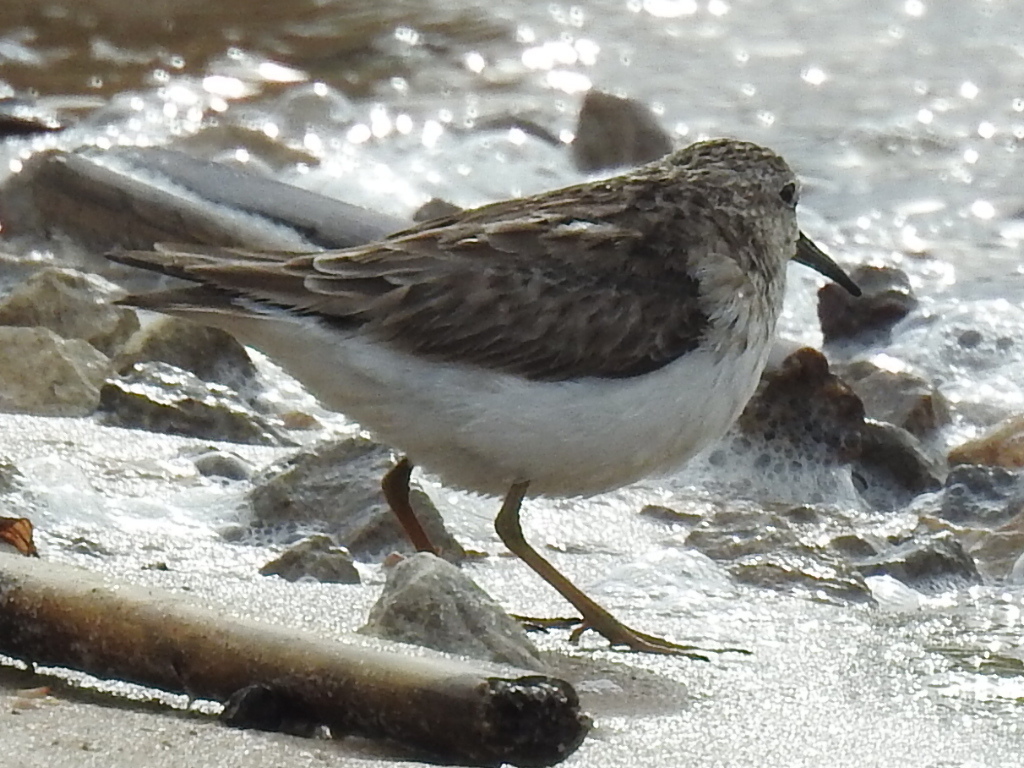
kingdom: Animalia
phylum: Chordata
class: Aves
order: Charadriiformes
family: Scolopacidae
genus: Calidris
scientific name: Calidris minutilla
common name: Least sandpiper
